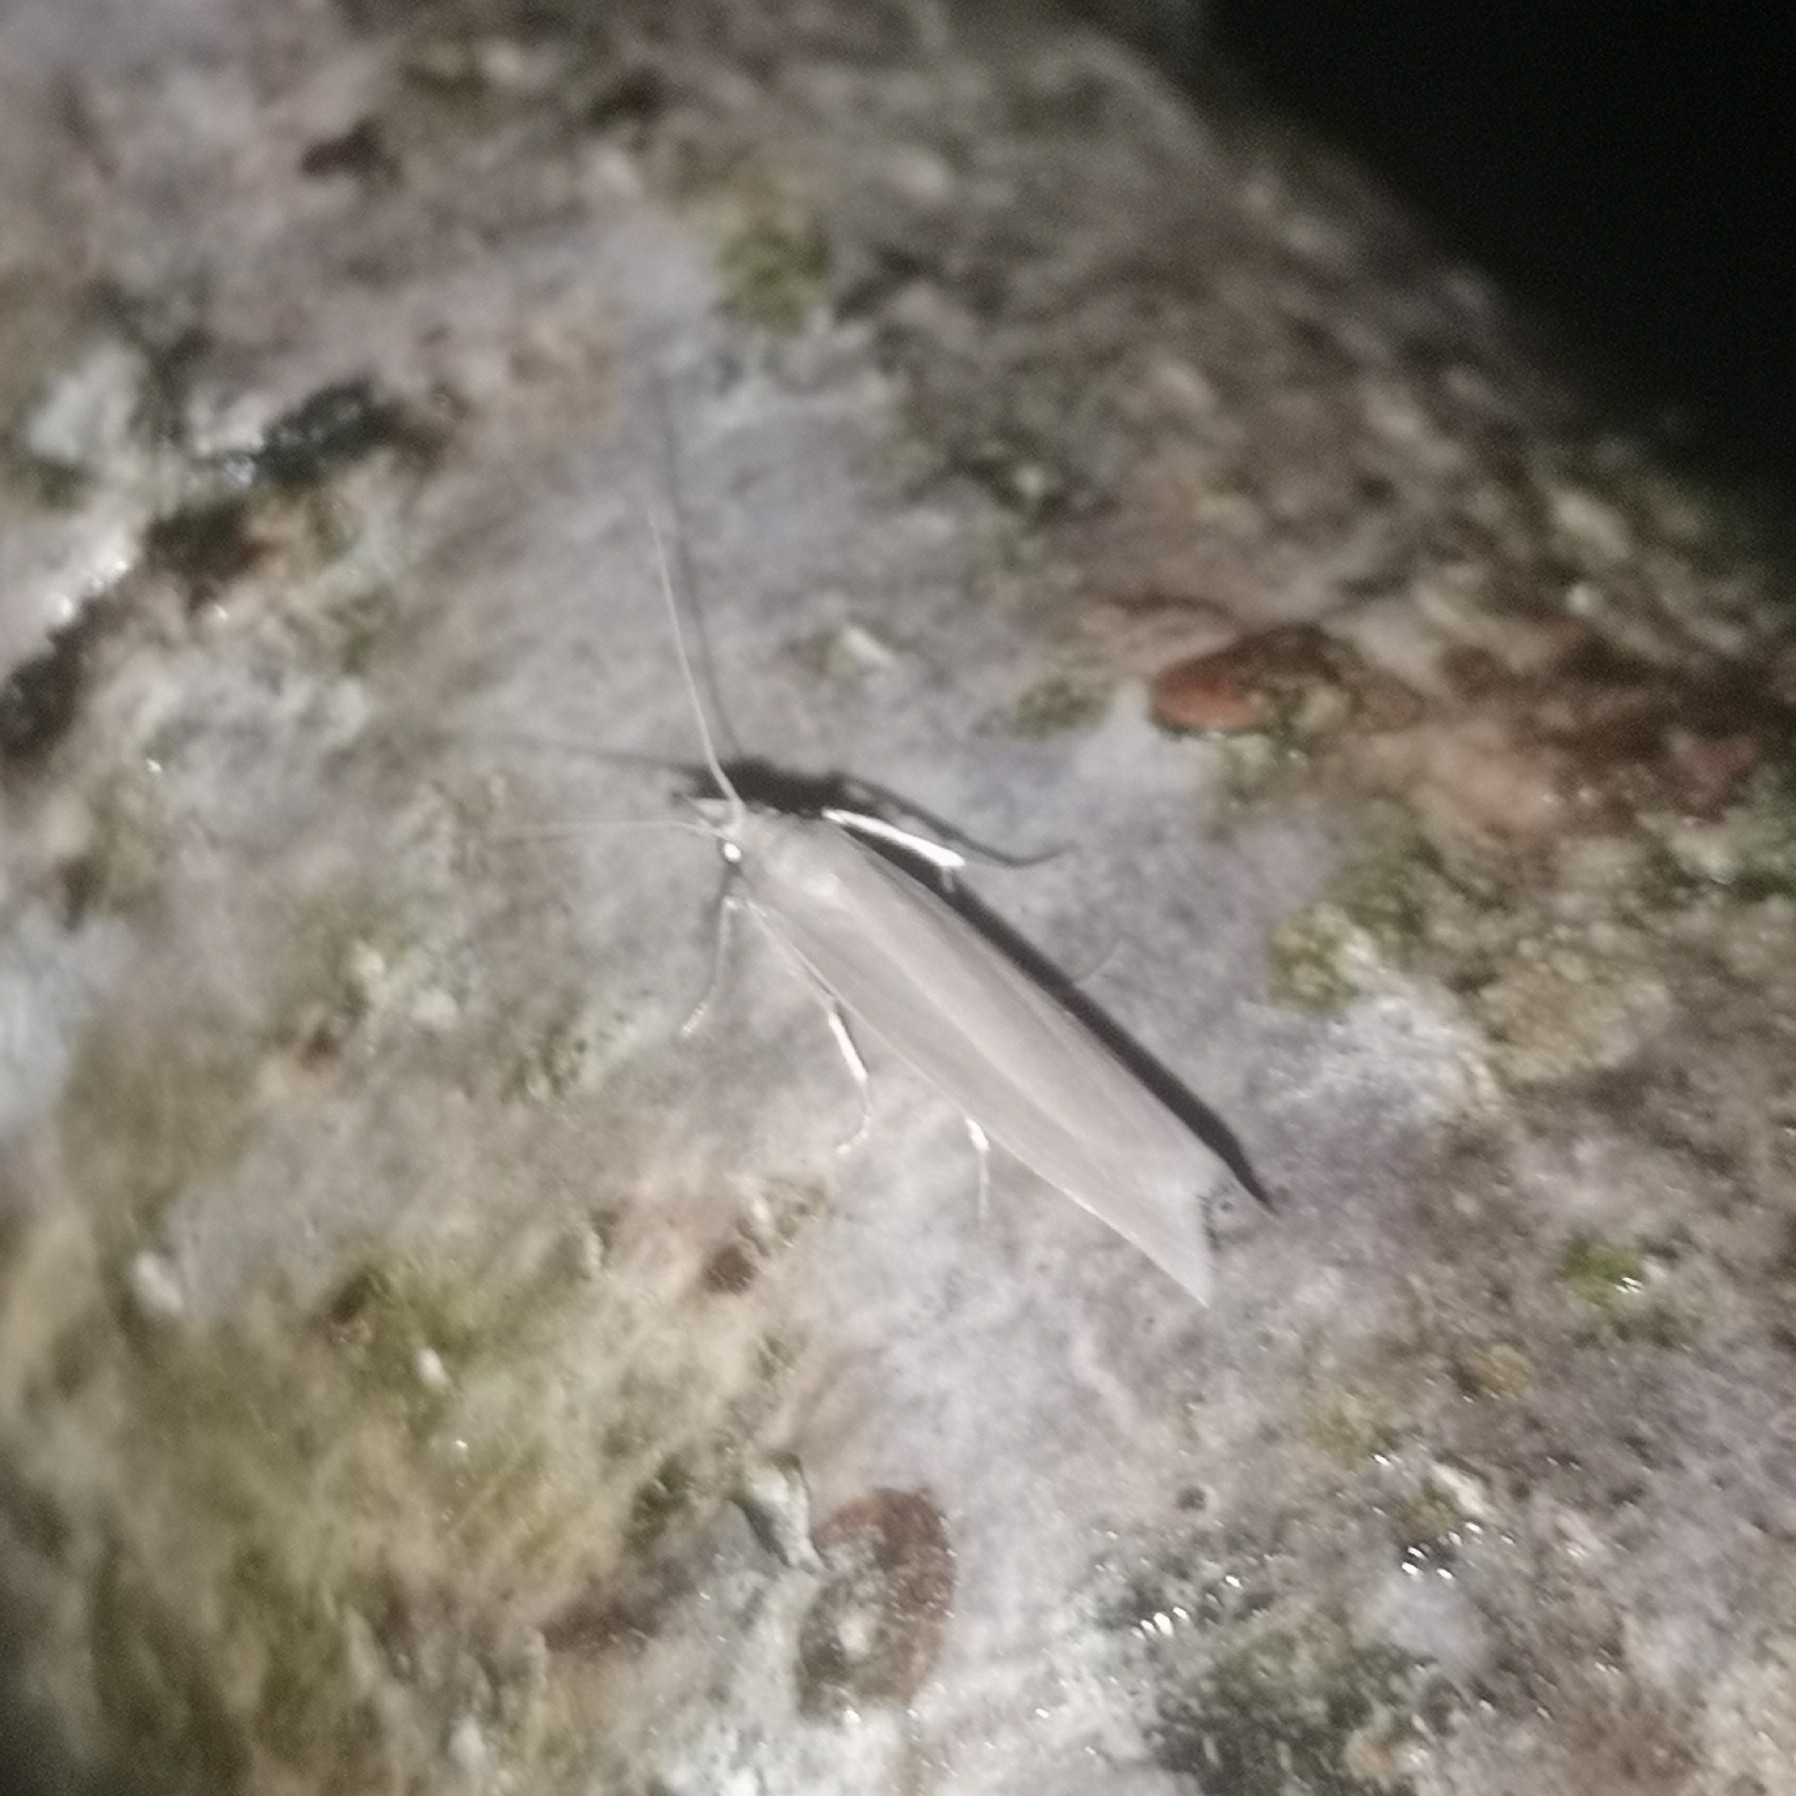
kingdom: Animalia
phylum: Arthropoda
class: Insecta
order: Lepidoptera
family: Crambidae
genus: Crambus
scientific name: Crambus perlellus
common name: Yellow satin veneer
